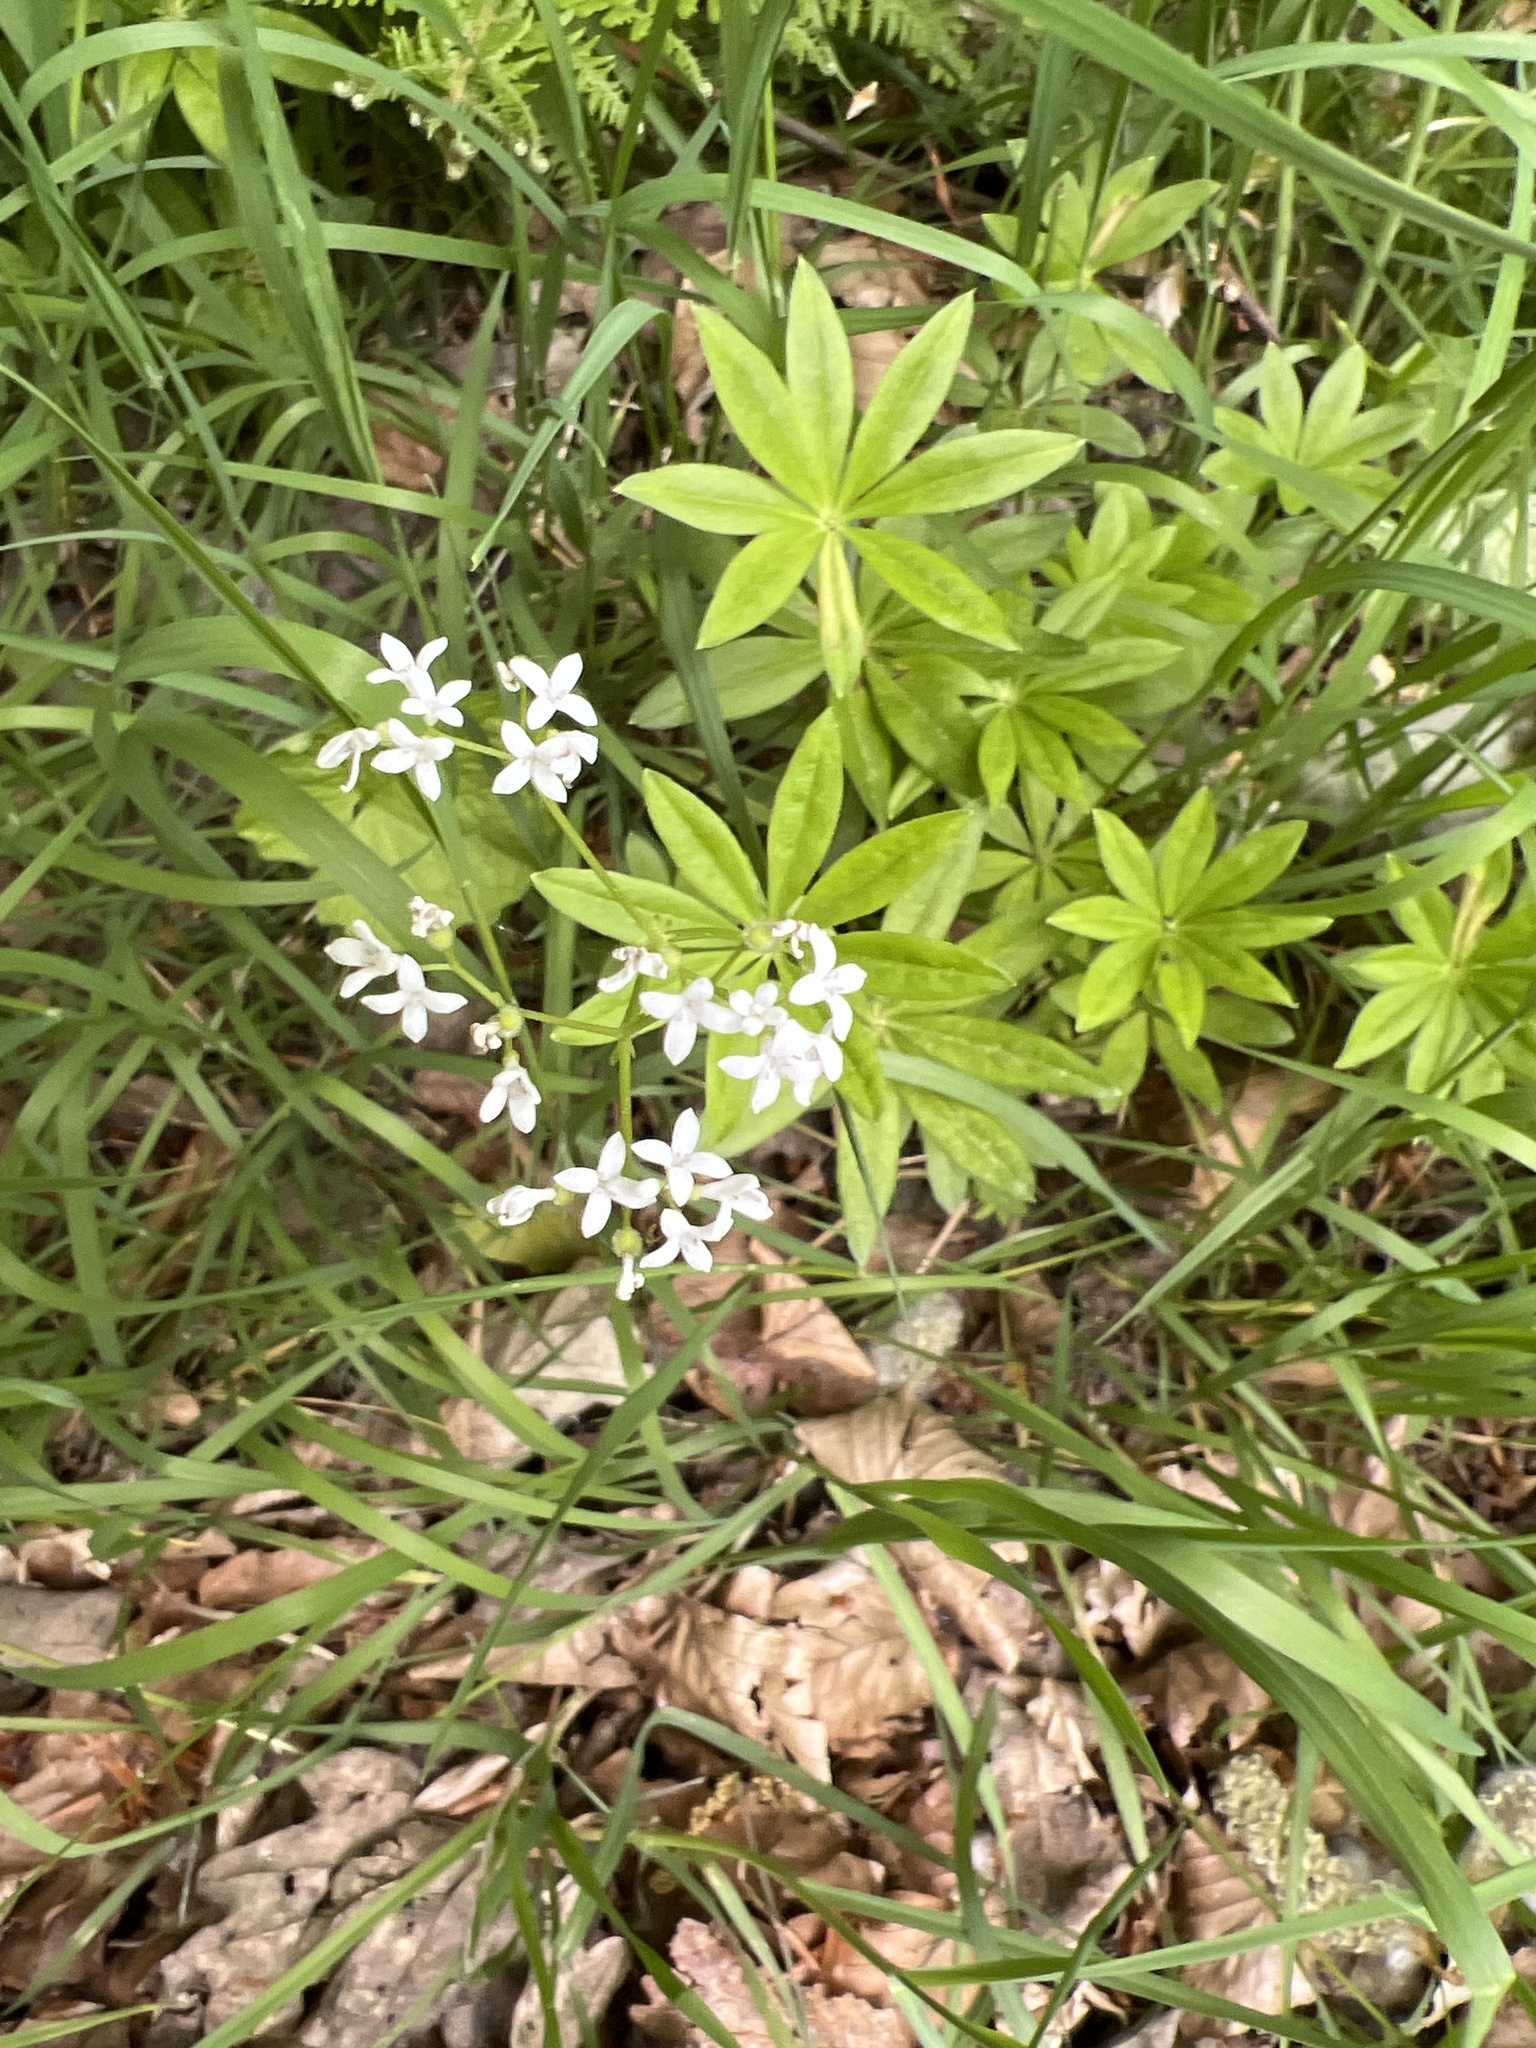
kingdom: Plantae
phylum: Tracheophyta
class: Magnoliopsida
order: Gentianales
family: Rubiaceae
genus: Galium
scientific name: Galium odoratum
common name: Sweet woodruff
